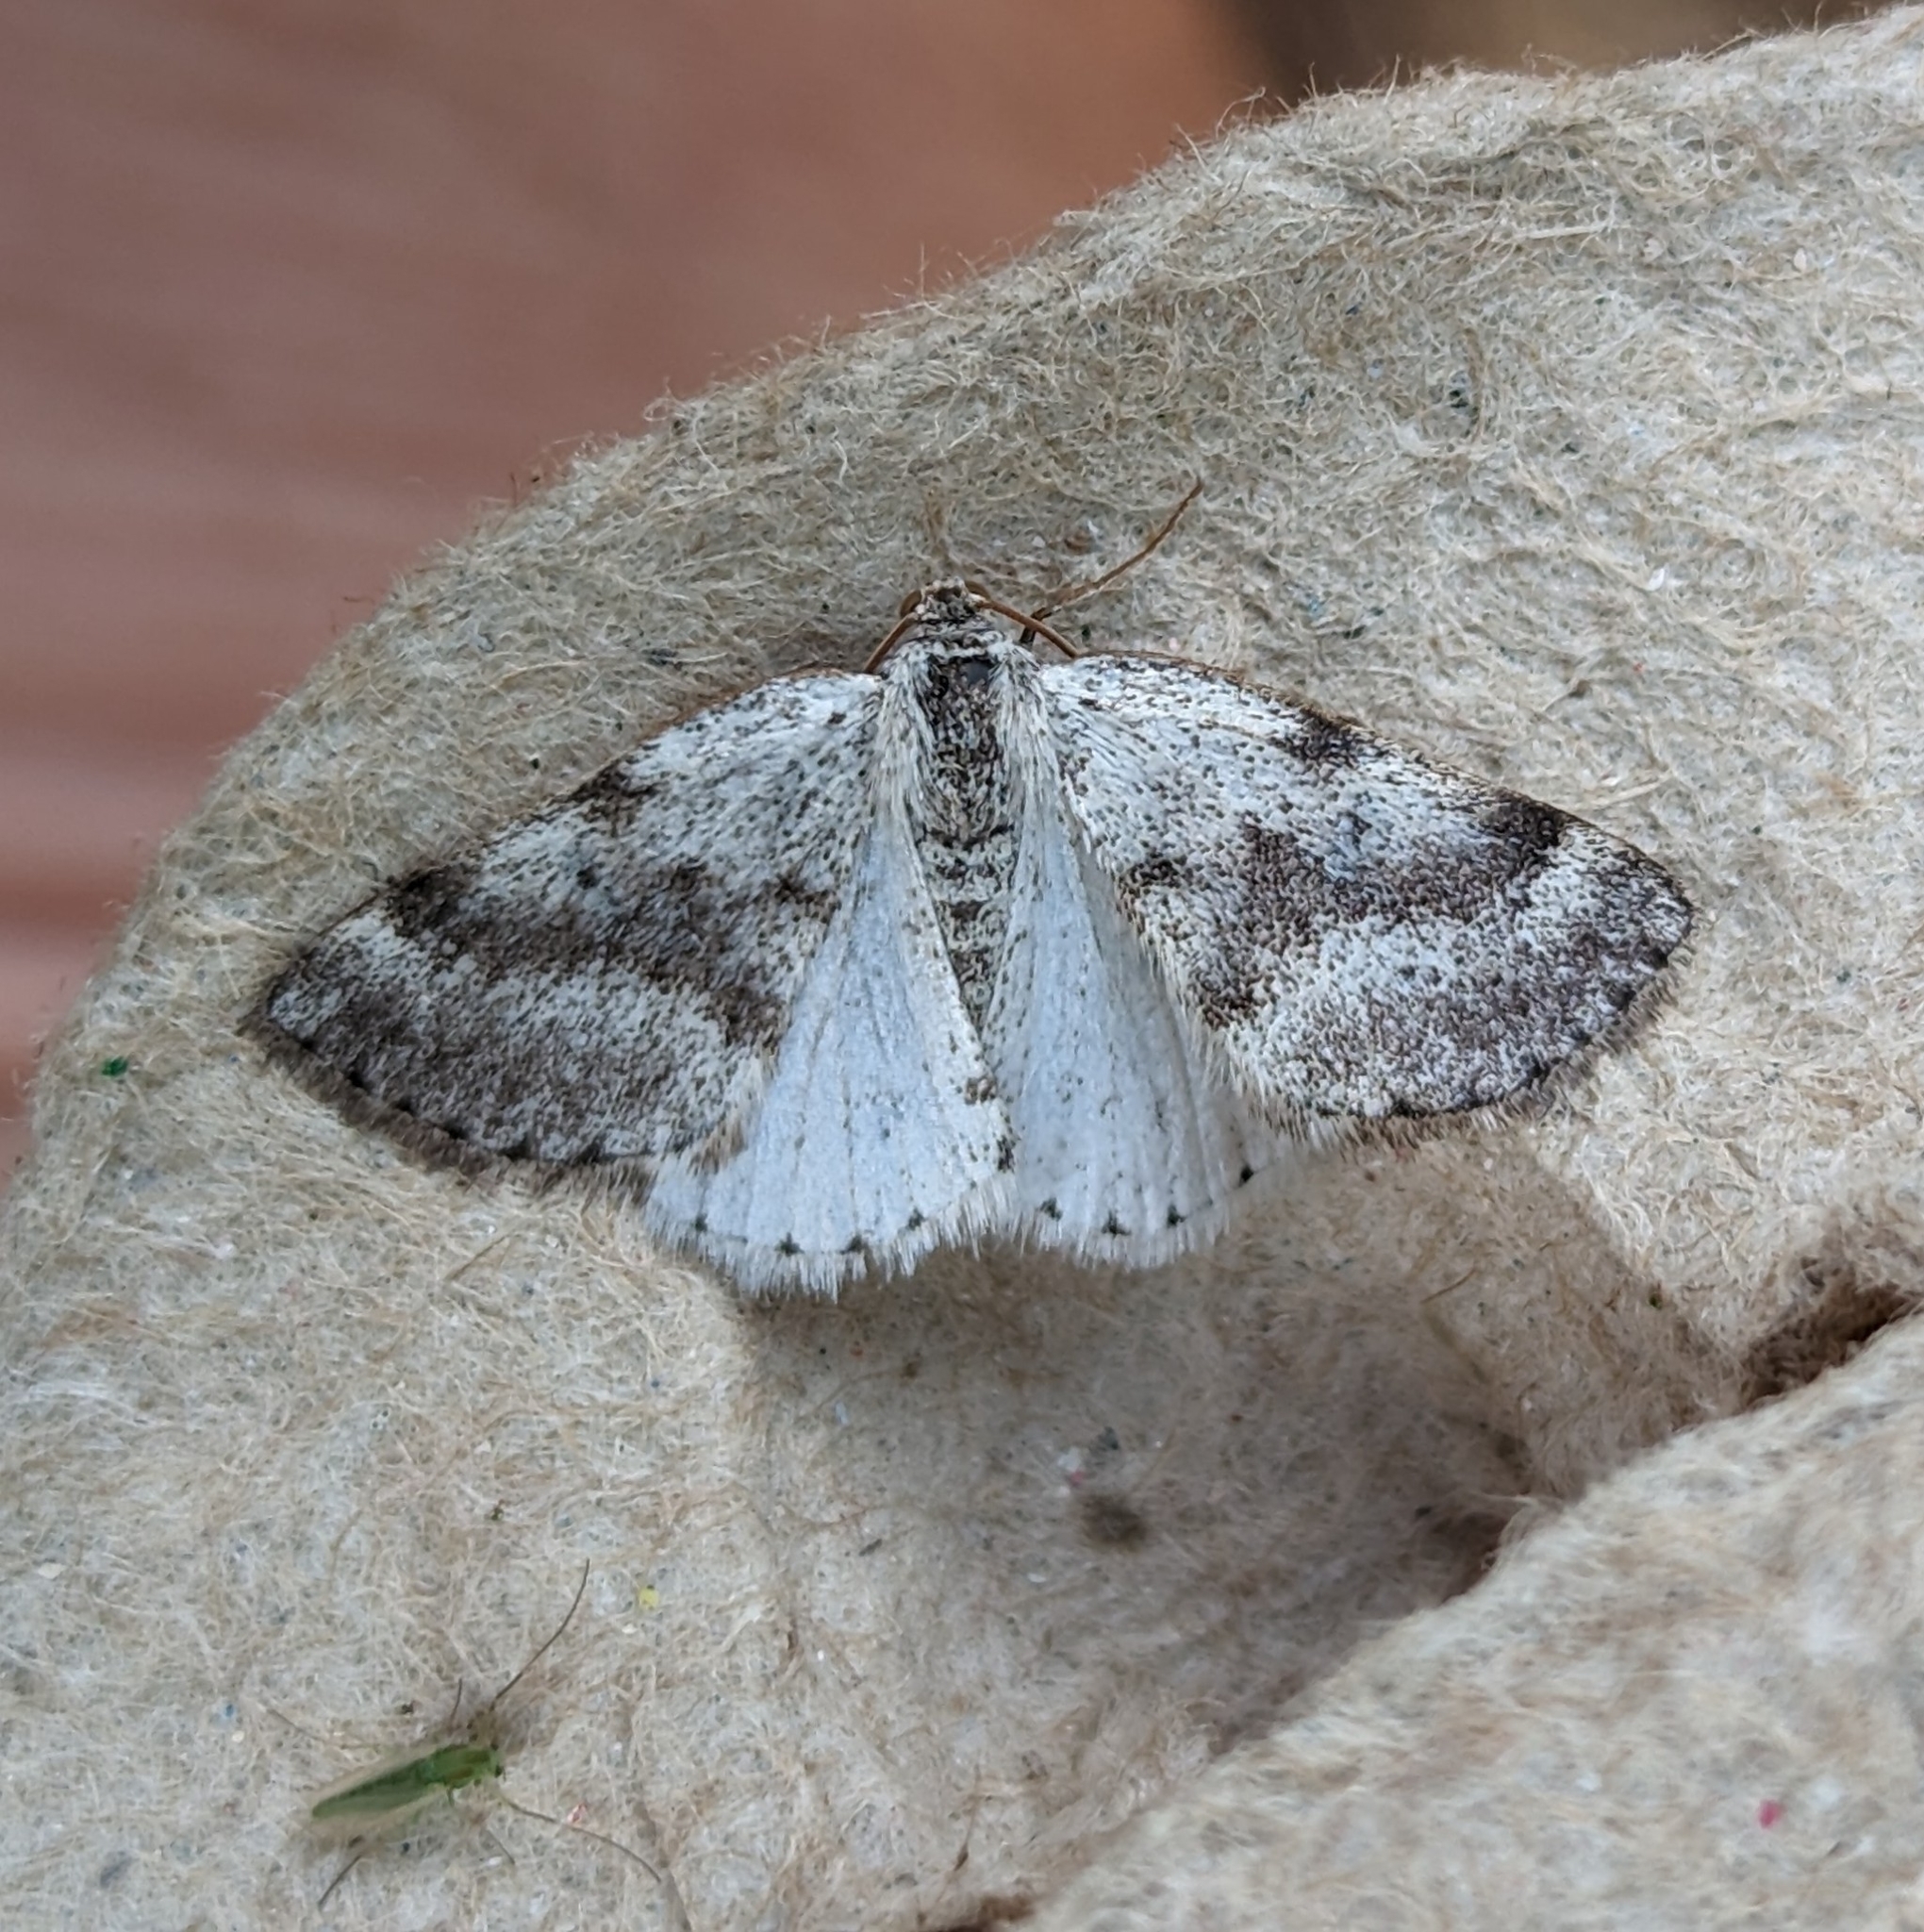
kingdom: Animalia
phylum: Arthropoda
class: Insecta
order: Lepidoptera
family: Geometridae
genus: Lomographa
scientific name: Lomographa semiclarata
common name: Bluish spring moth
